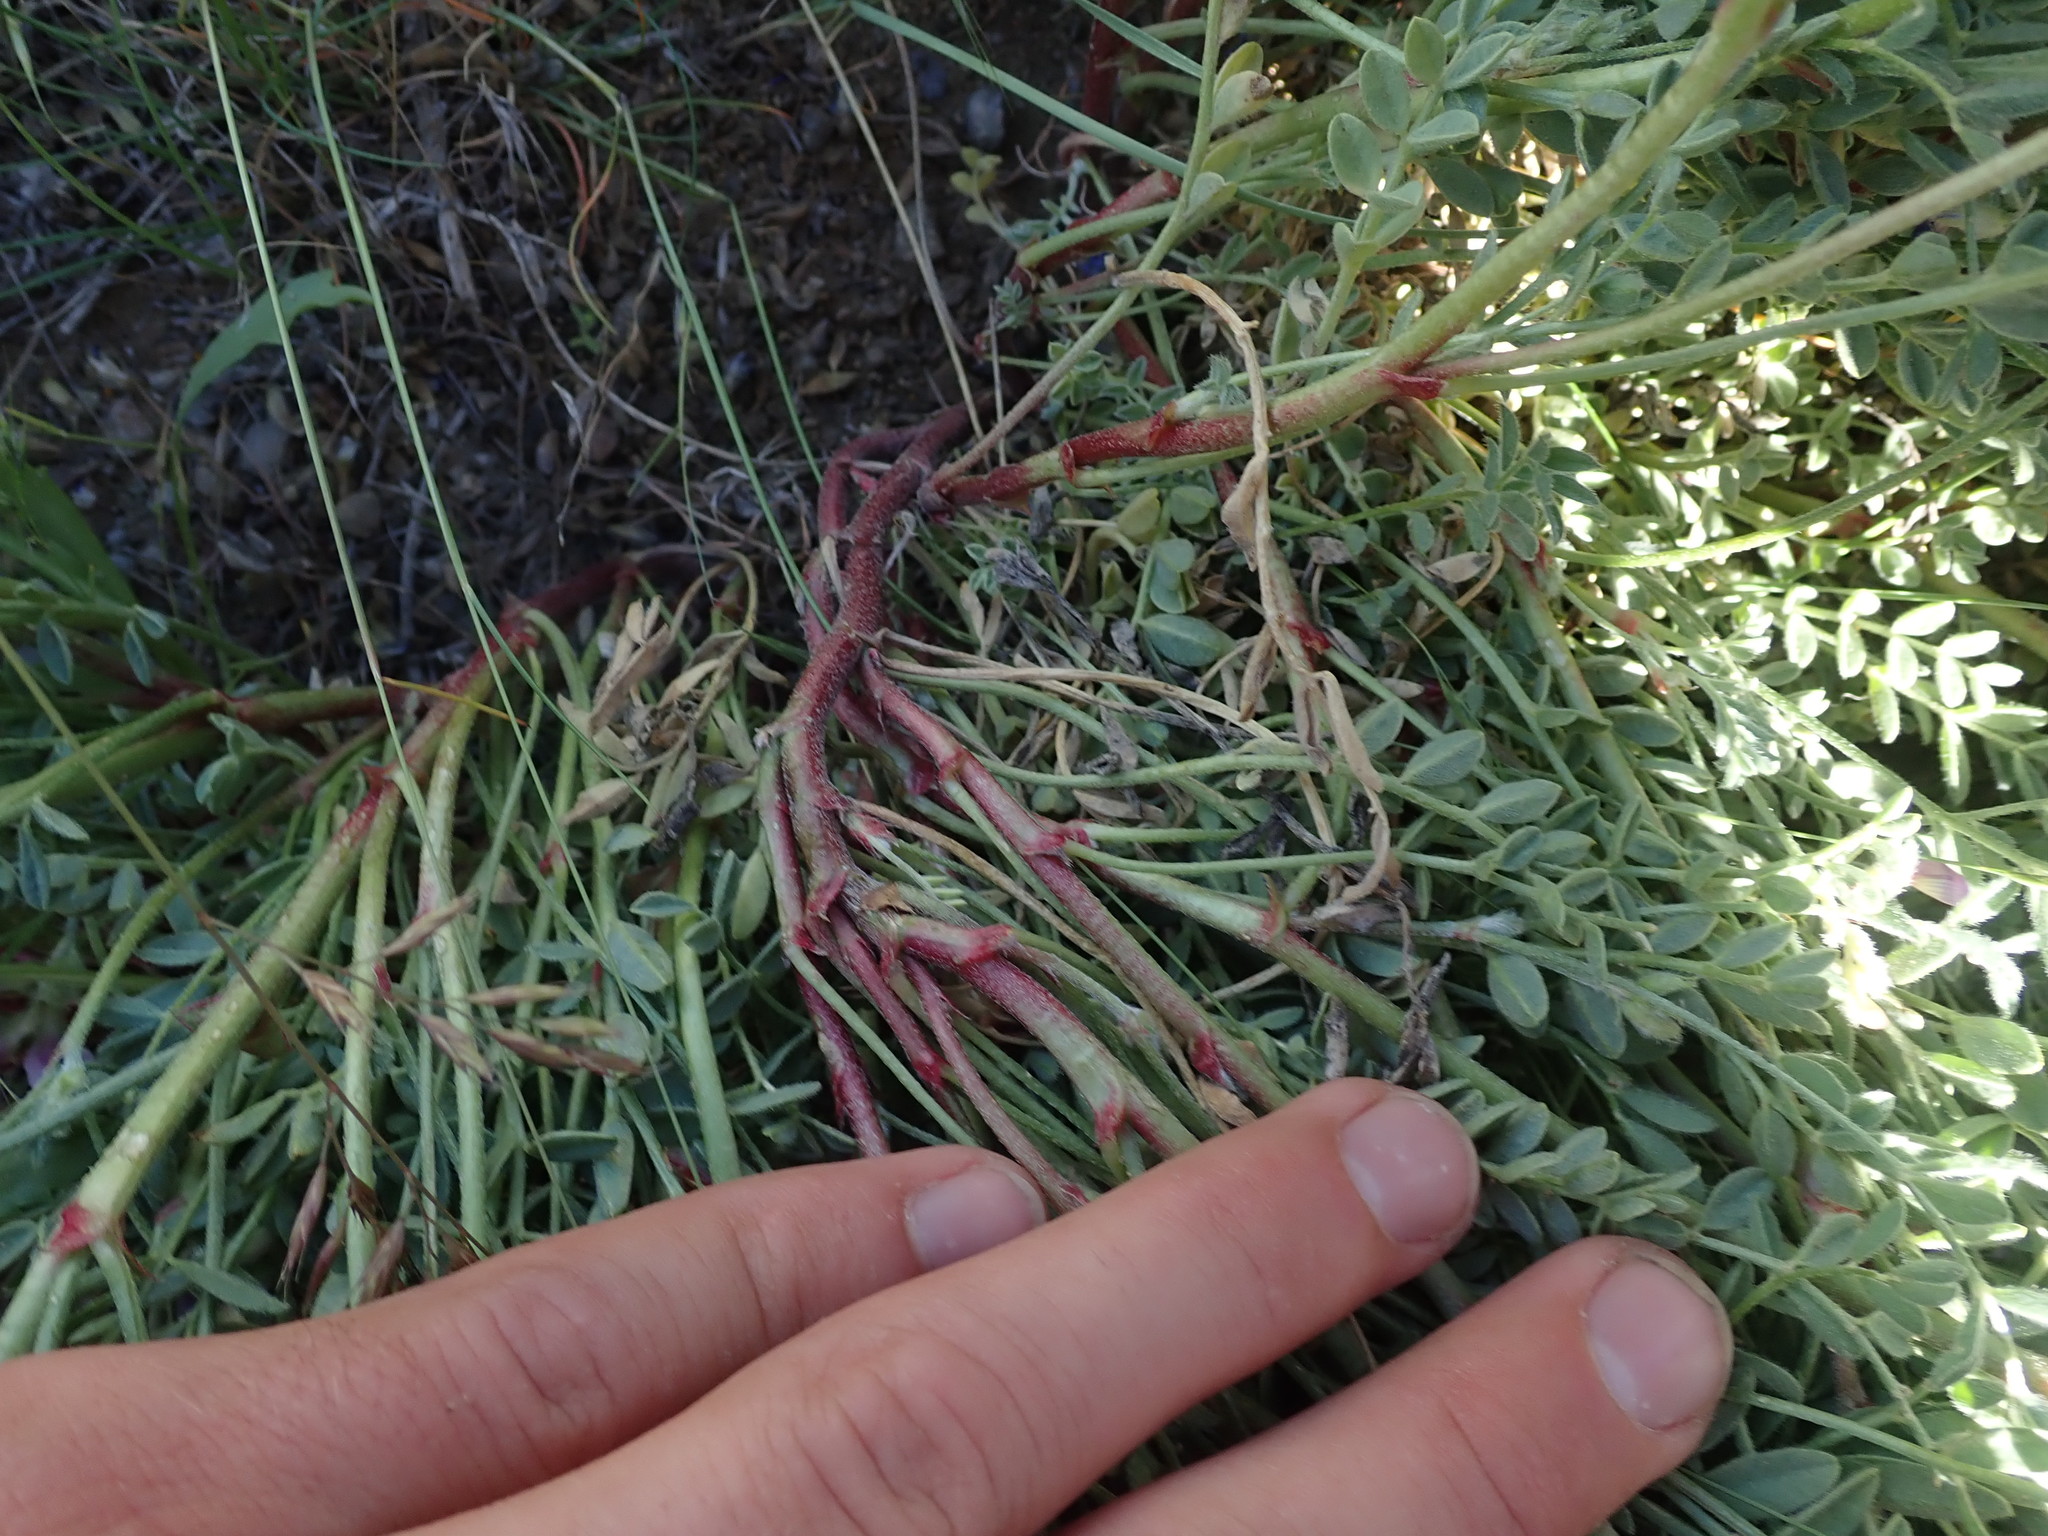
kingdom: Plantae
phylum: Tracheophyta
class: Magnoliopsida
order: Fabales
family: Fabaceae
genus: Astragalus
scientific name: Astragalus pubentissimus
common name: Green river milkvetch
